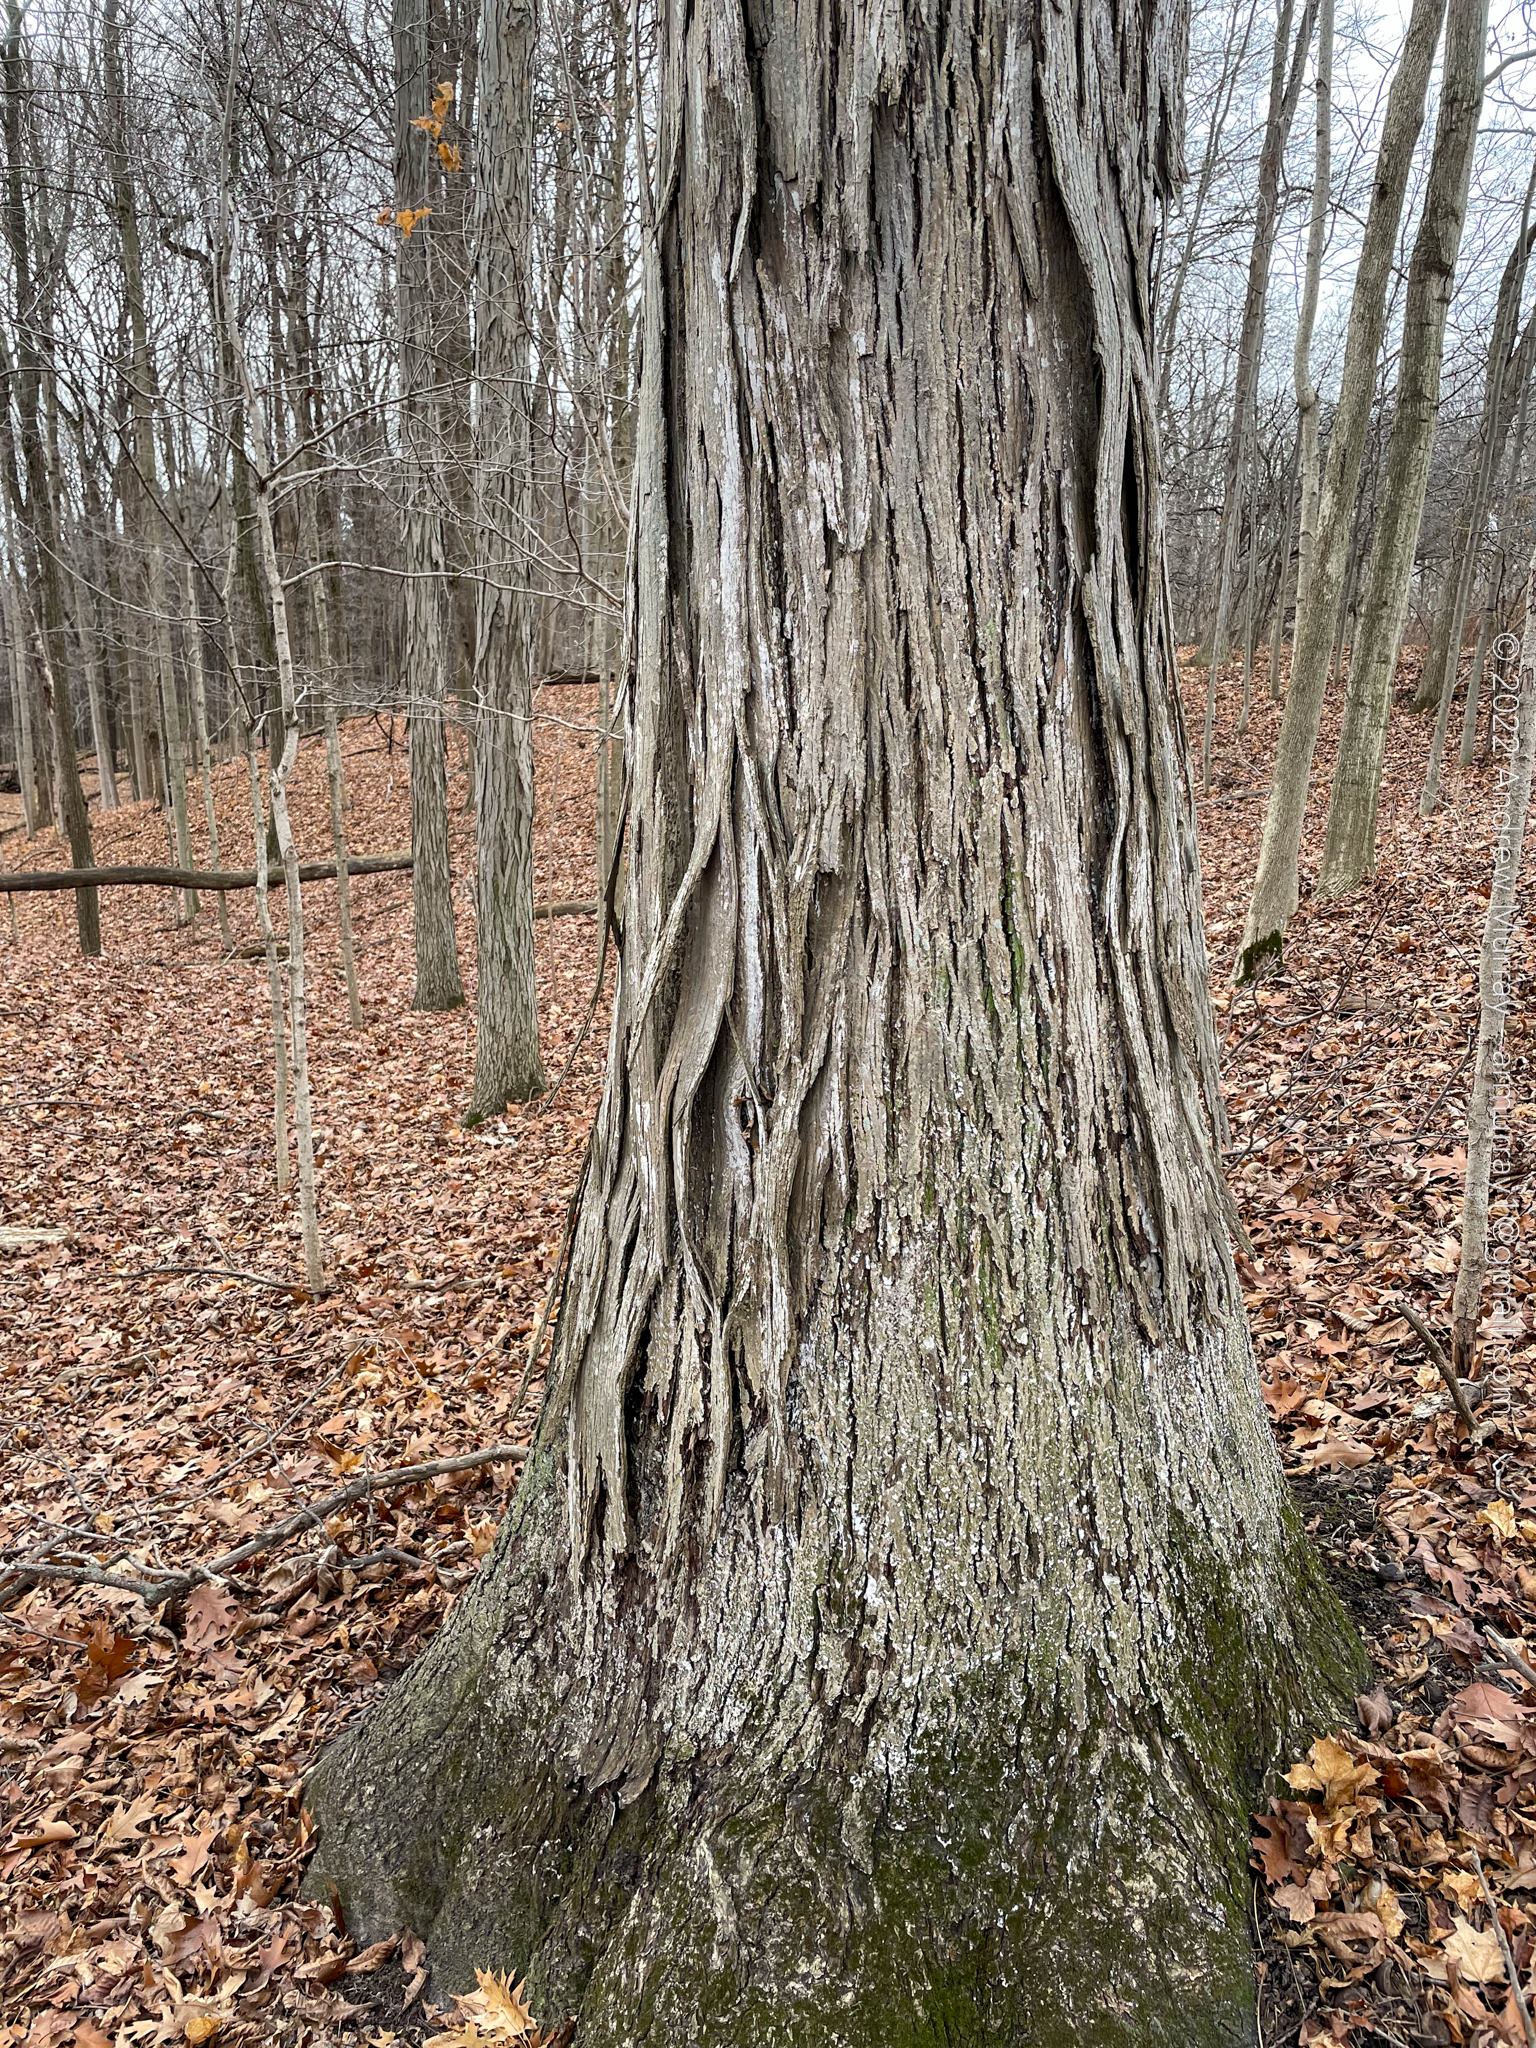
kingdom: Plantae
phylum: Tracheophyta
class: Magnoliopsida
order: Fagales
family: Juglandaceae
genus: Carya
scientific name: Carya ovata
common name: Shagbark hickory
